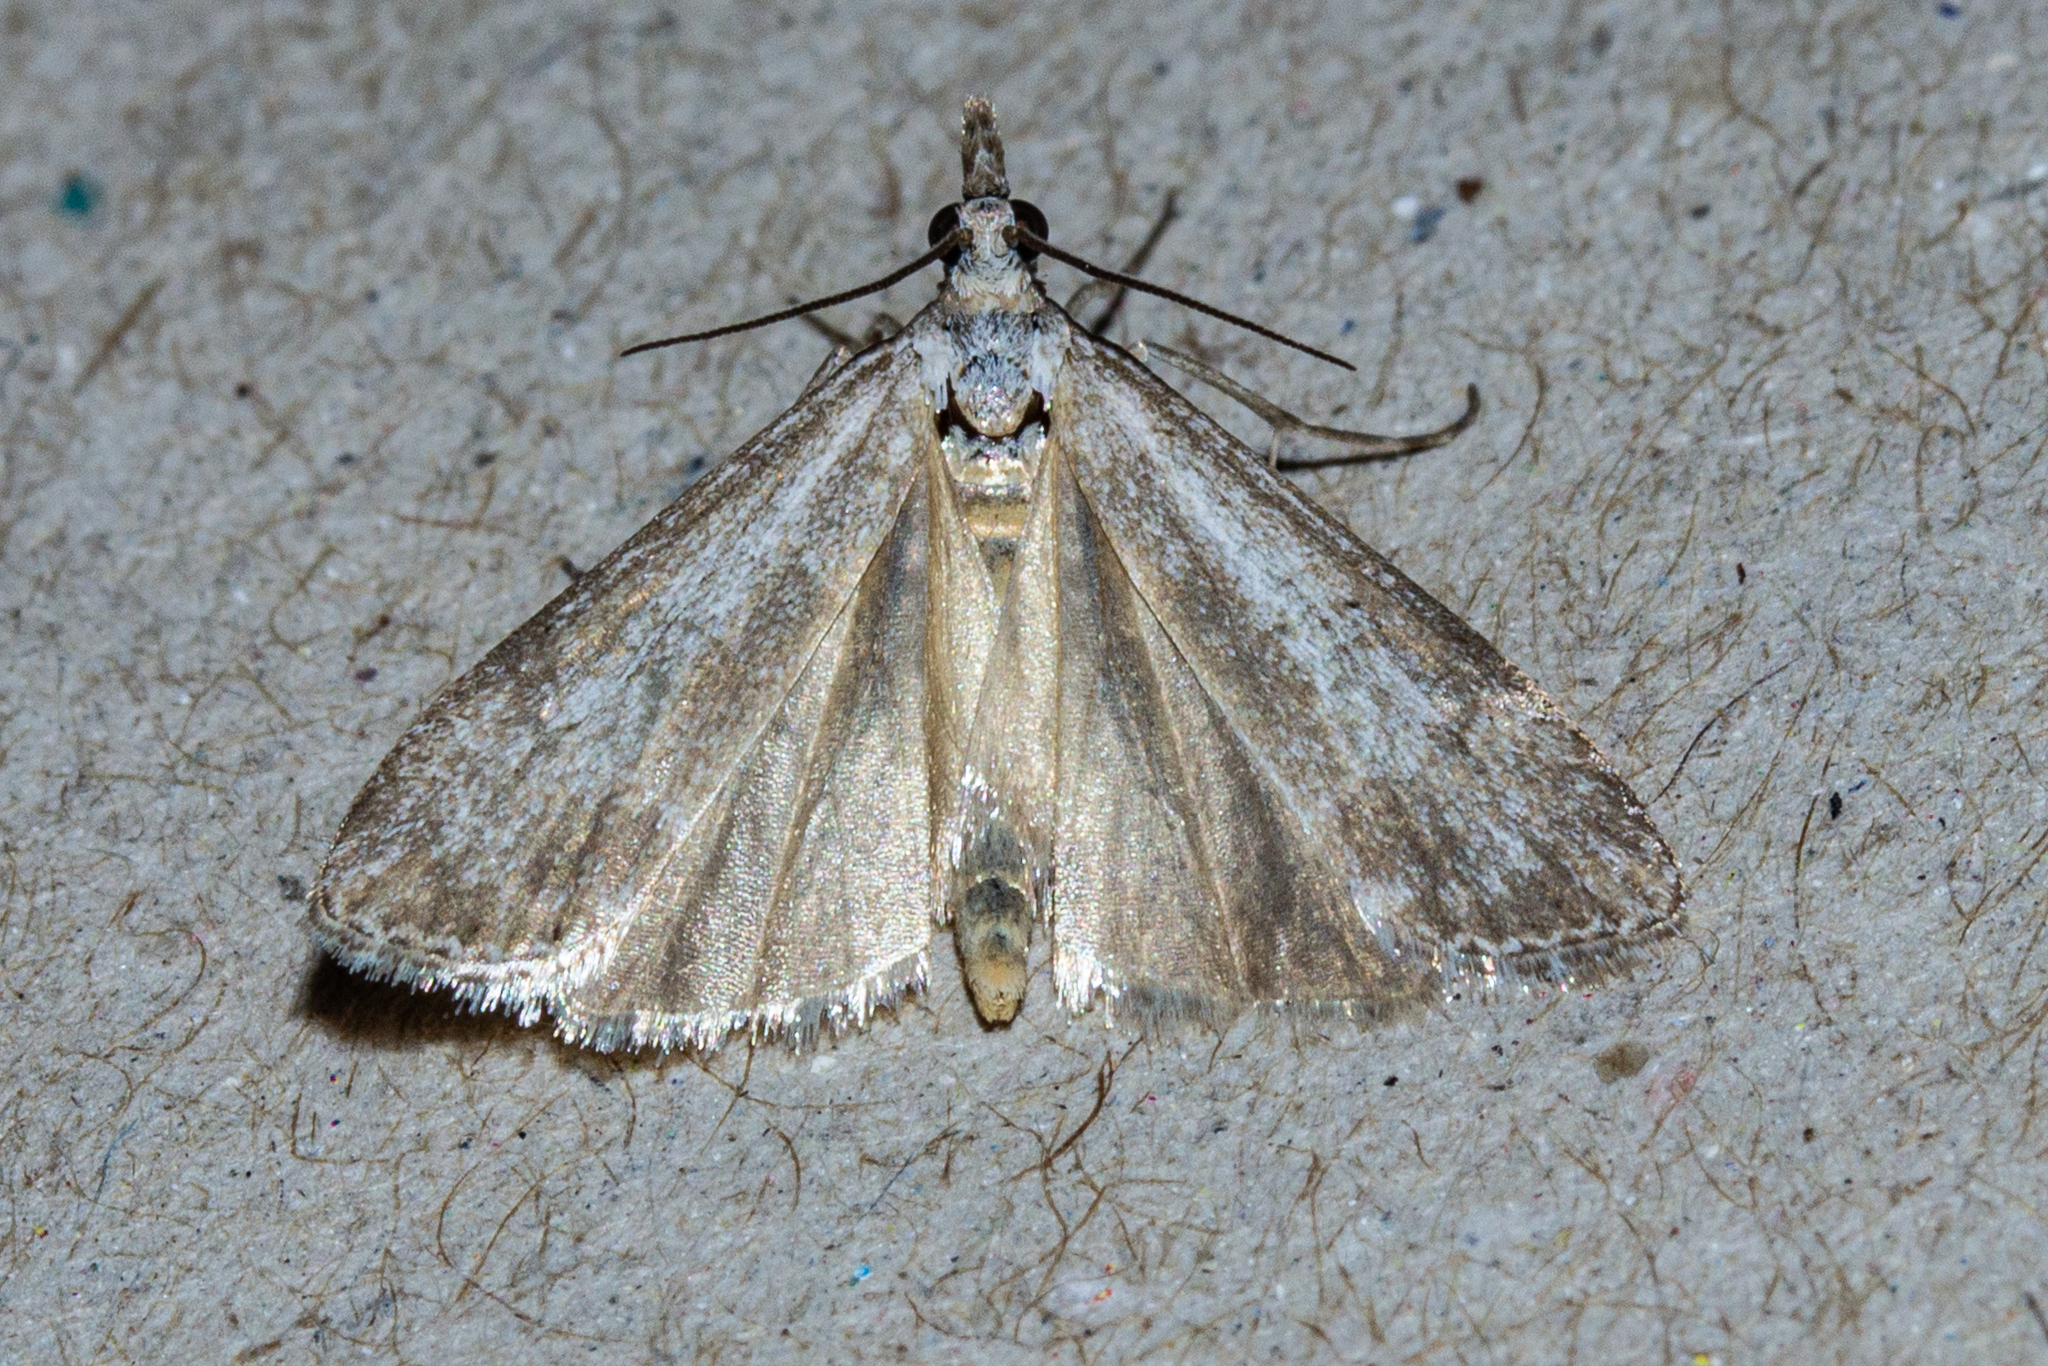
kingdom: Animalia
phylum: Arthropoda
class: Insecta
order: Lepidoptera
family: Crambidae
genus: Eudonia
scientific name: Eudonia leptalea
